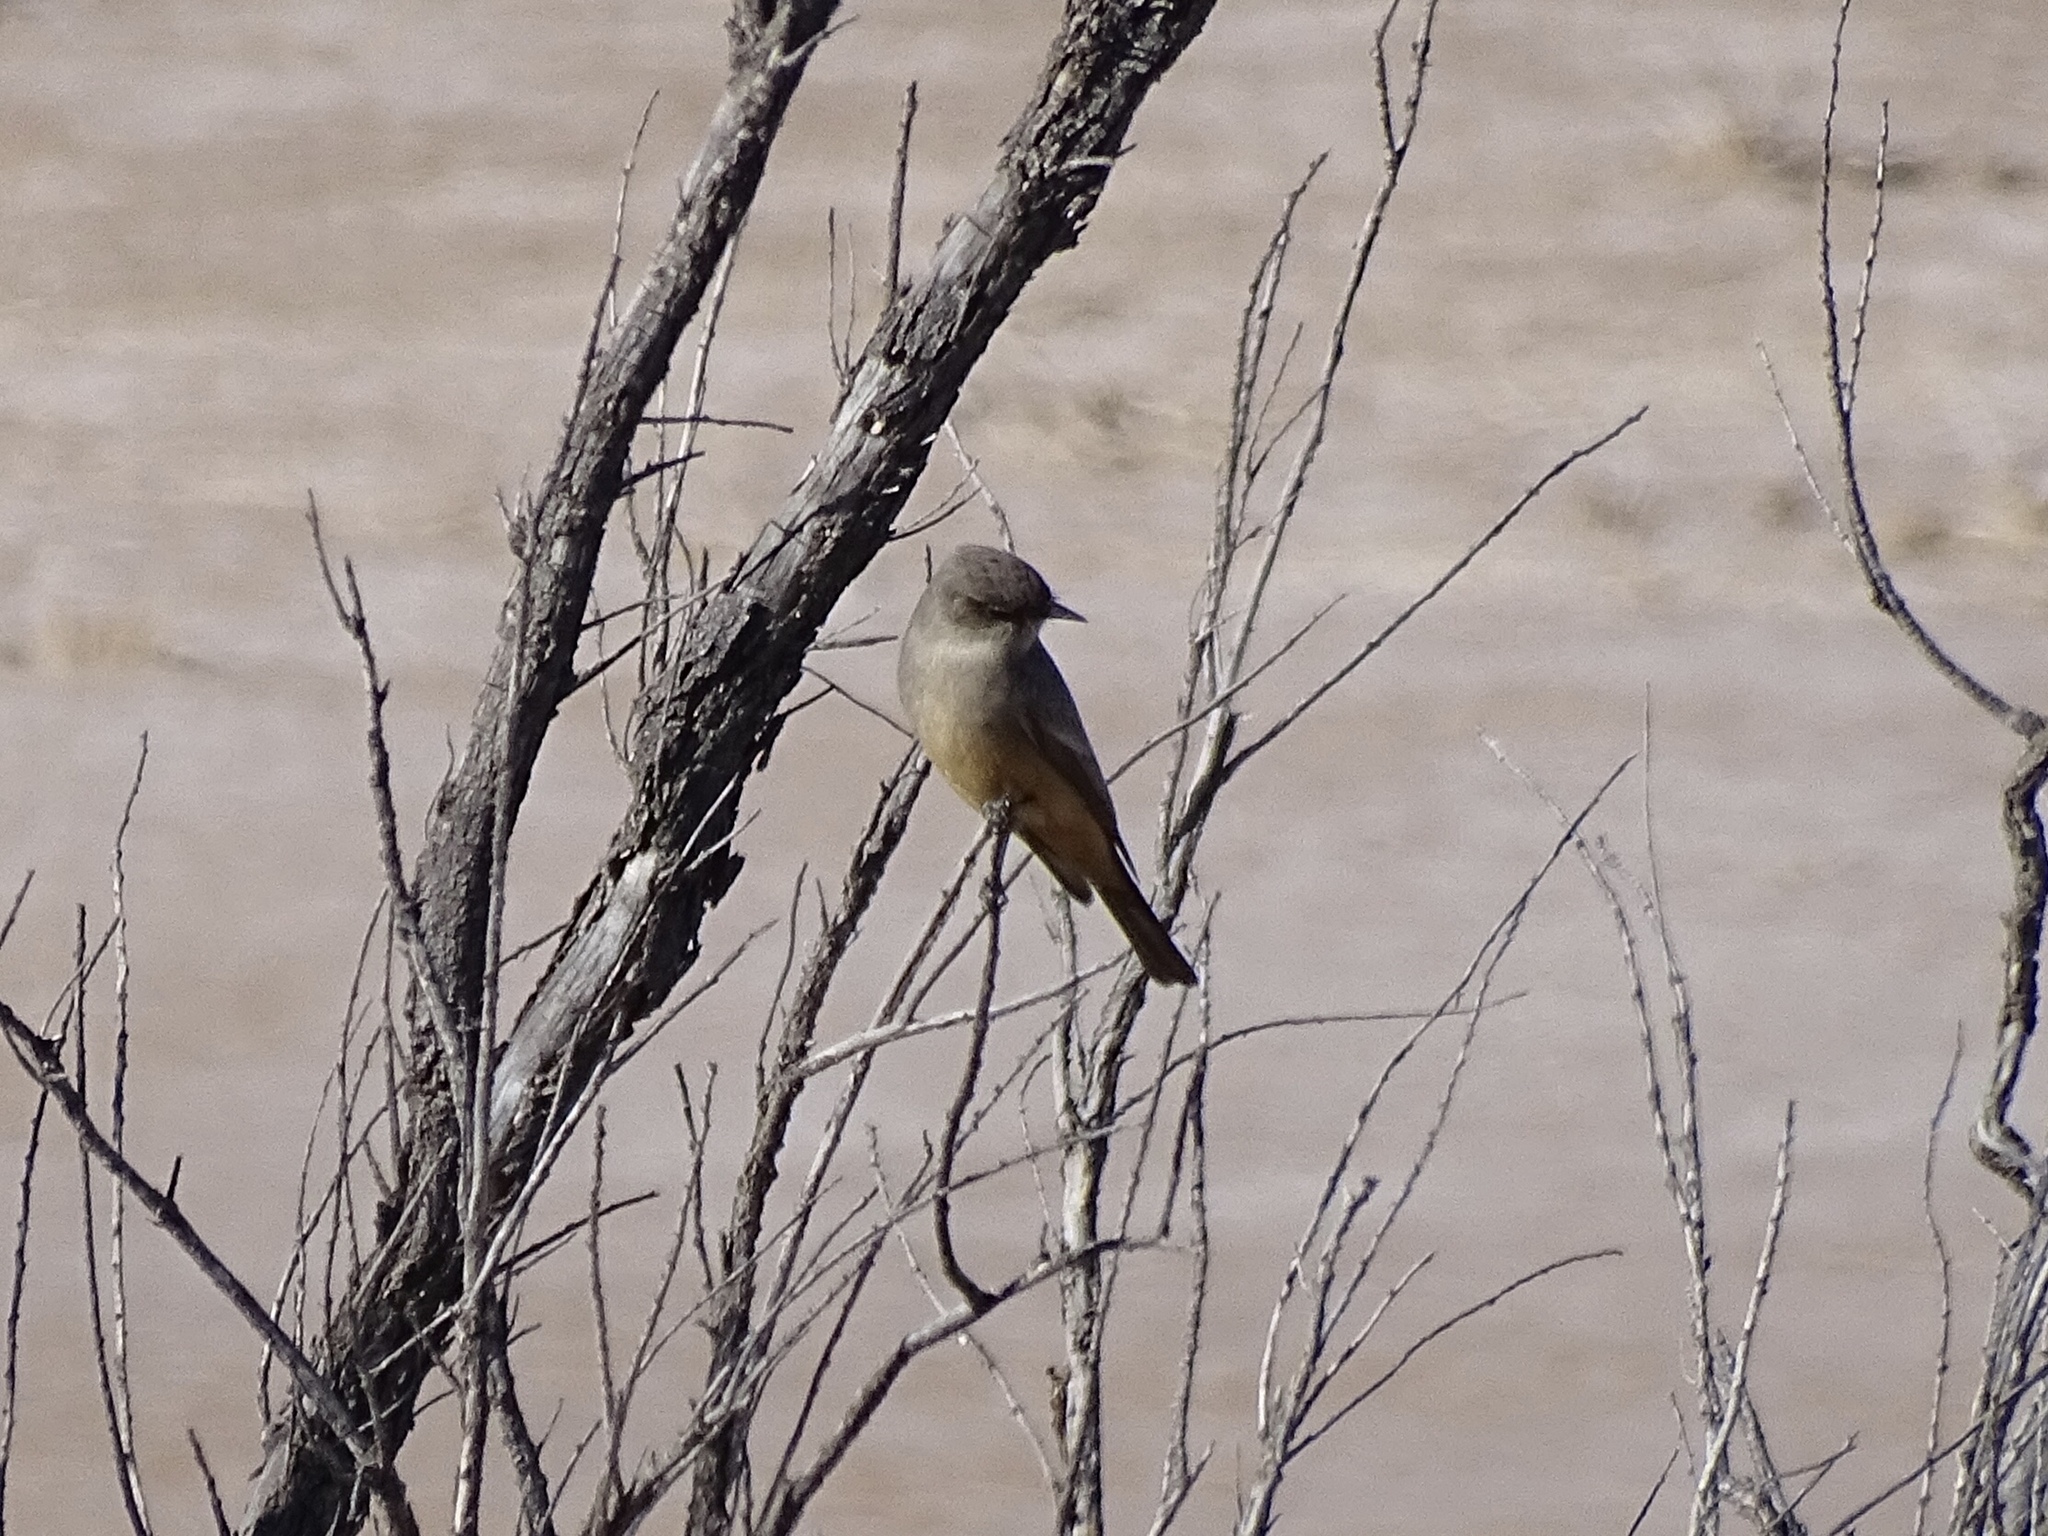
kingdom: Animalia
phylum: Chordata
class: Aves
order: Passeriformes
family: Tyrannidae
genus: Sayornis
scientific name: Sayornis saya
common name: Say's phoebe
